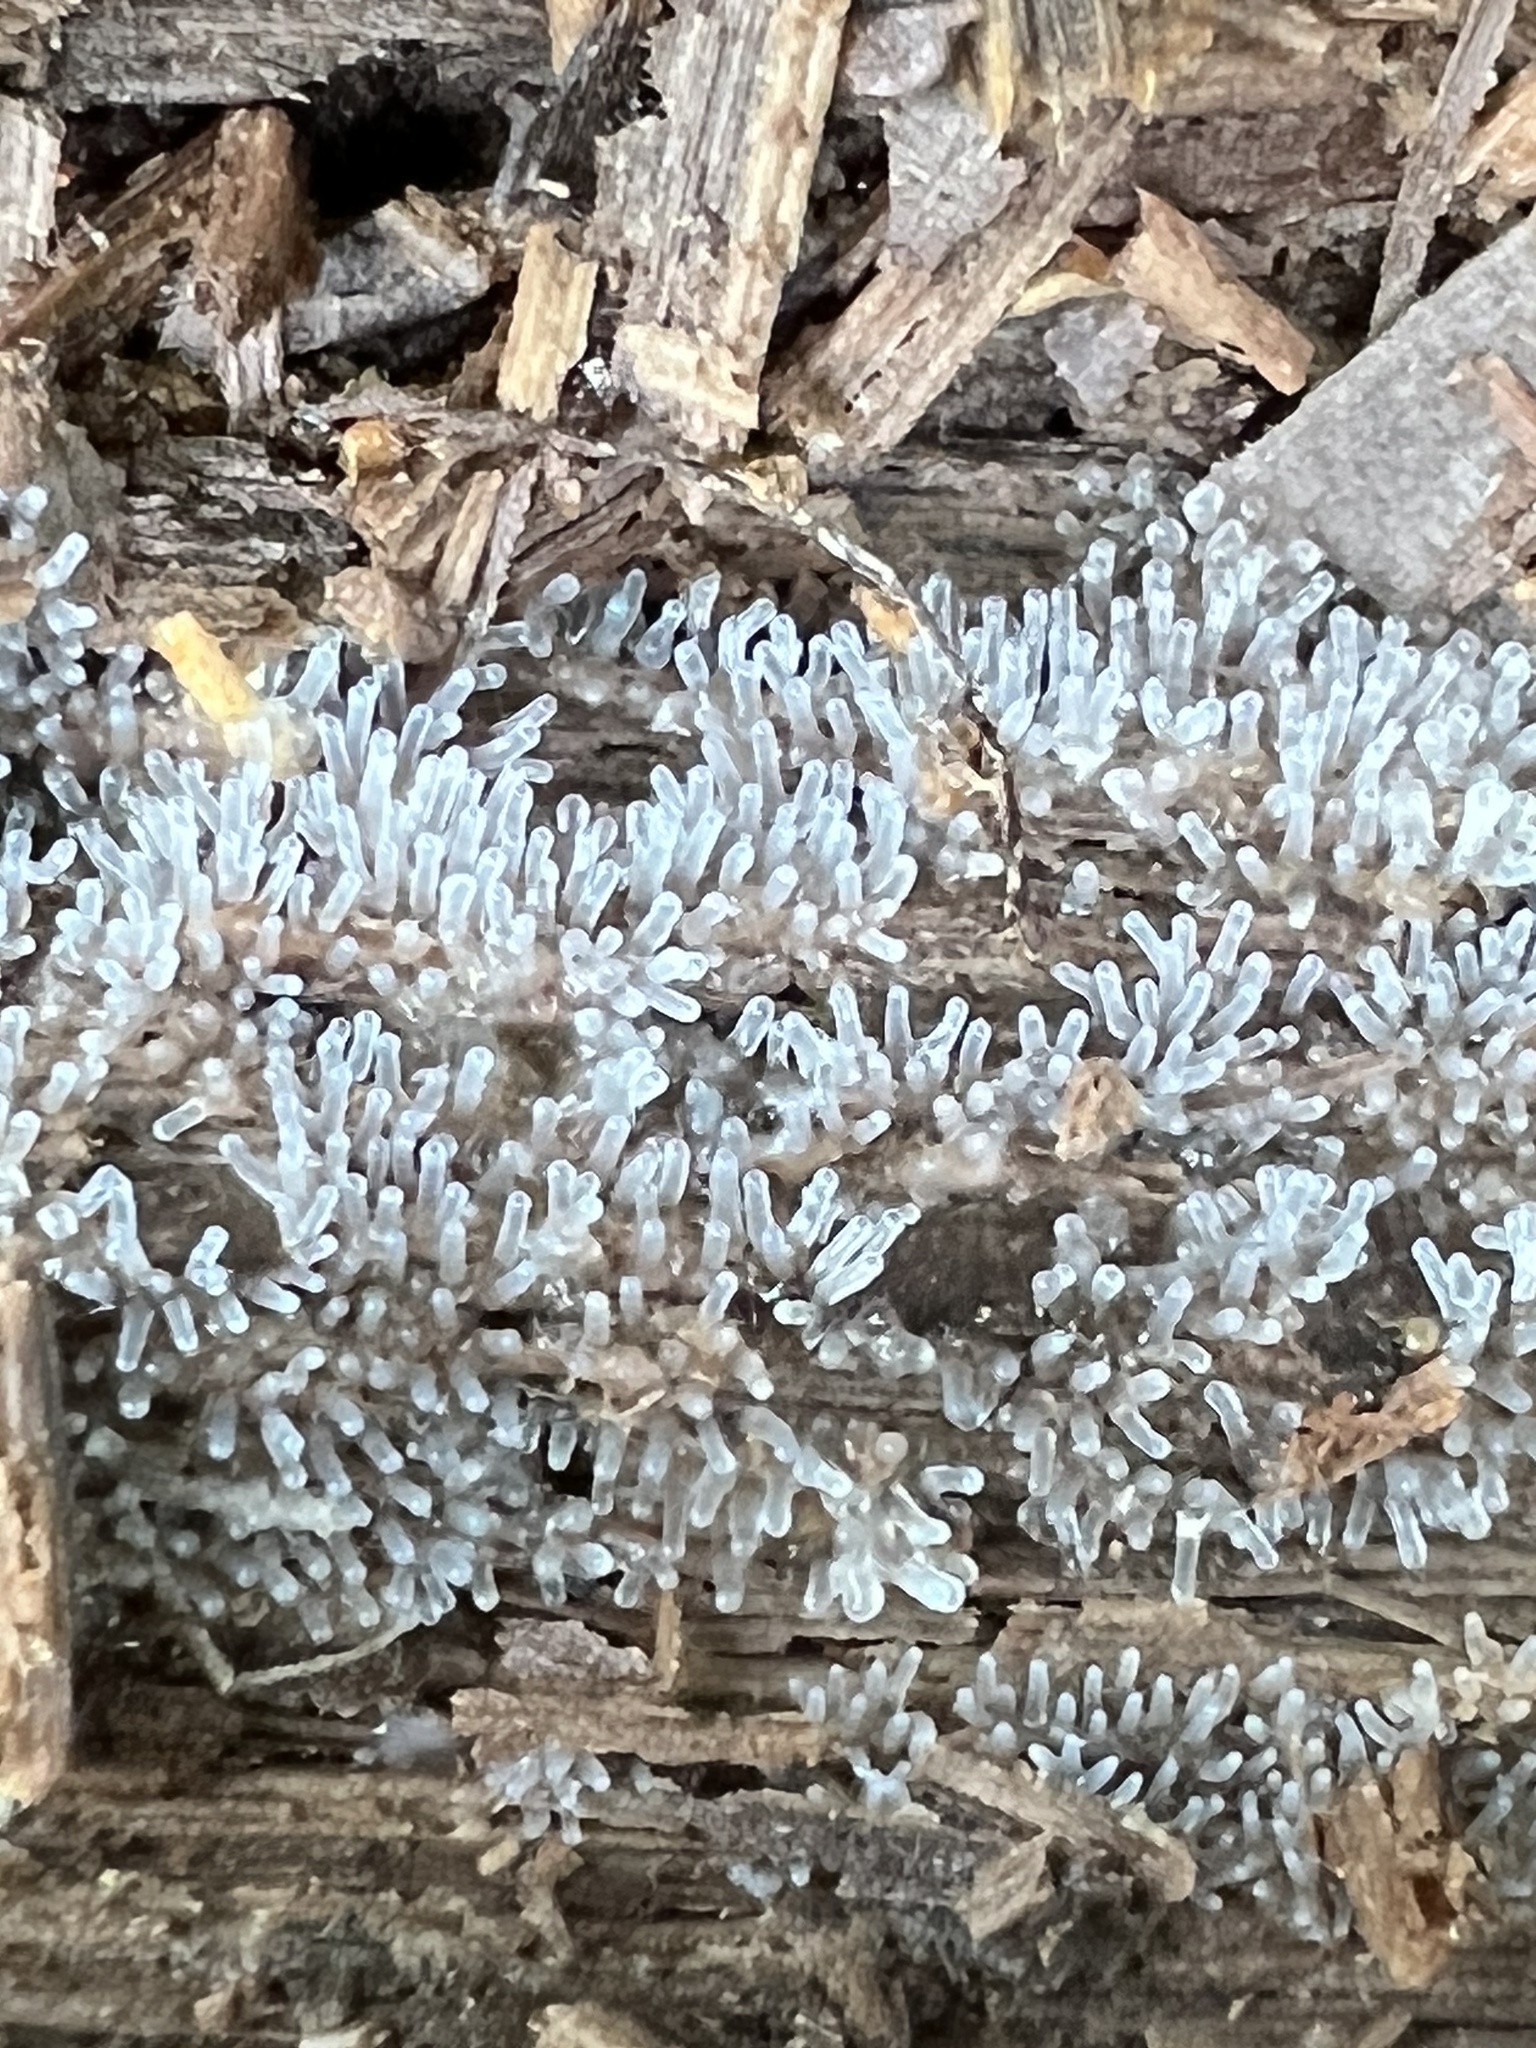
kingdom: Protozoa
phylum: Mycetozoa
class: Protosteliomycetes
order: Ceratiomyxales
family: Ceratiomyxaceae
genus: Ceratiomyxa
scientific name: Ceratiomyxa fruticulosa
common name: Honeycomb coral slime mold
